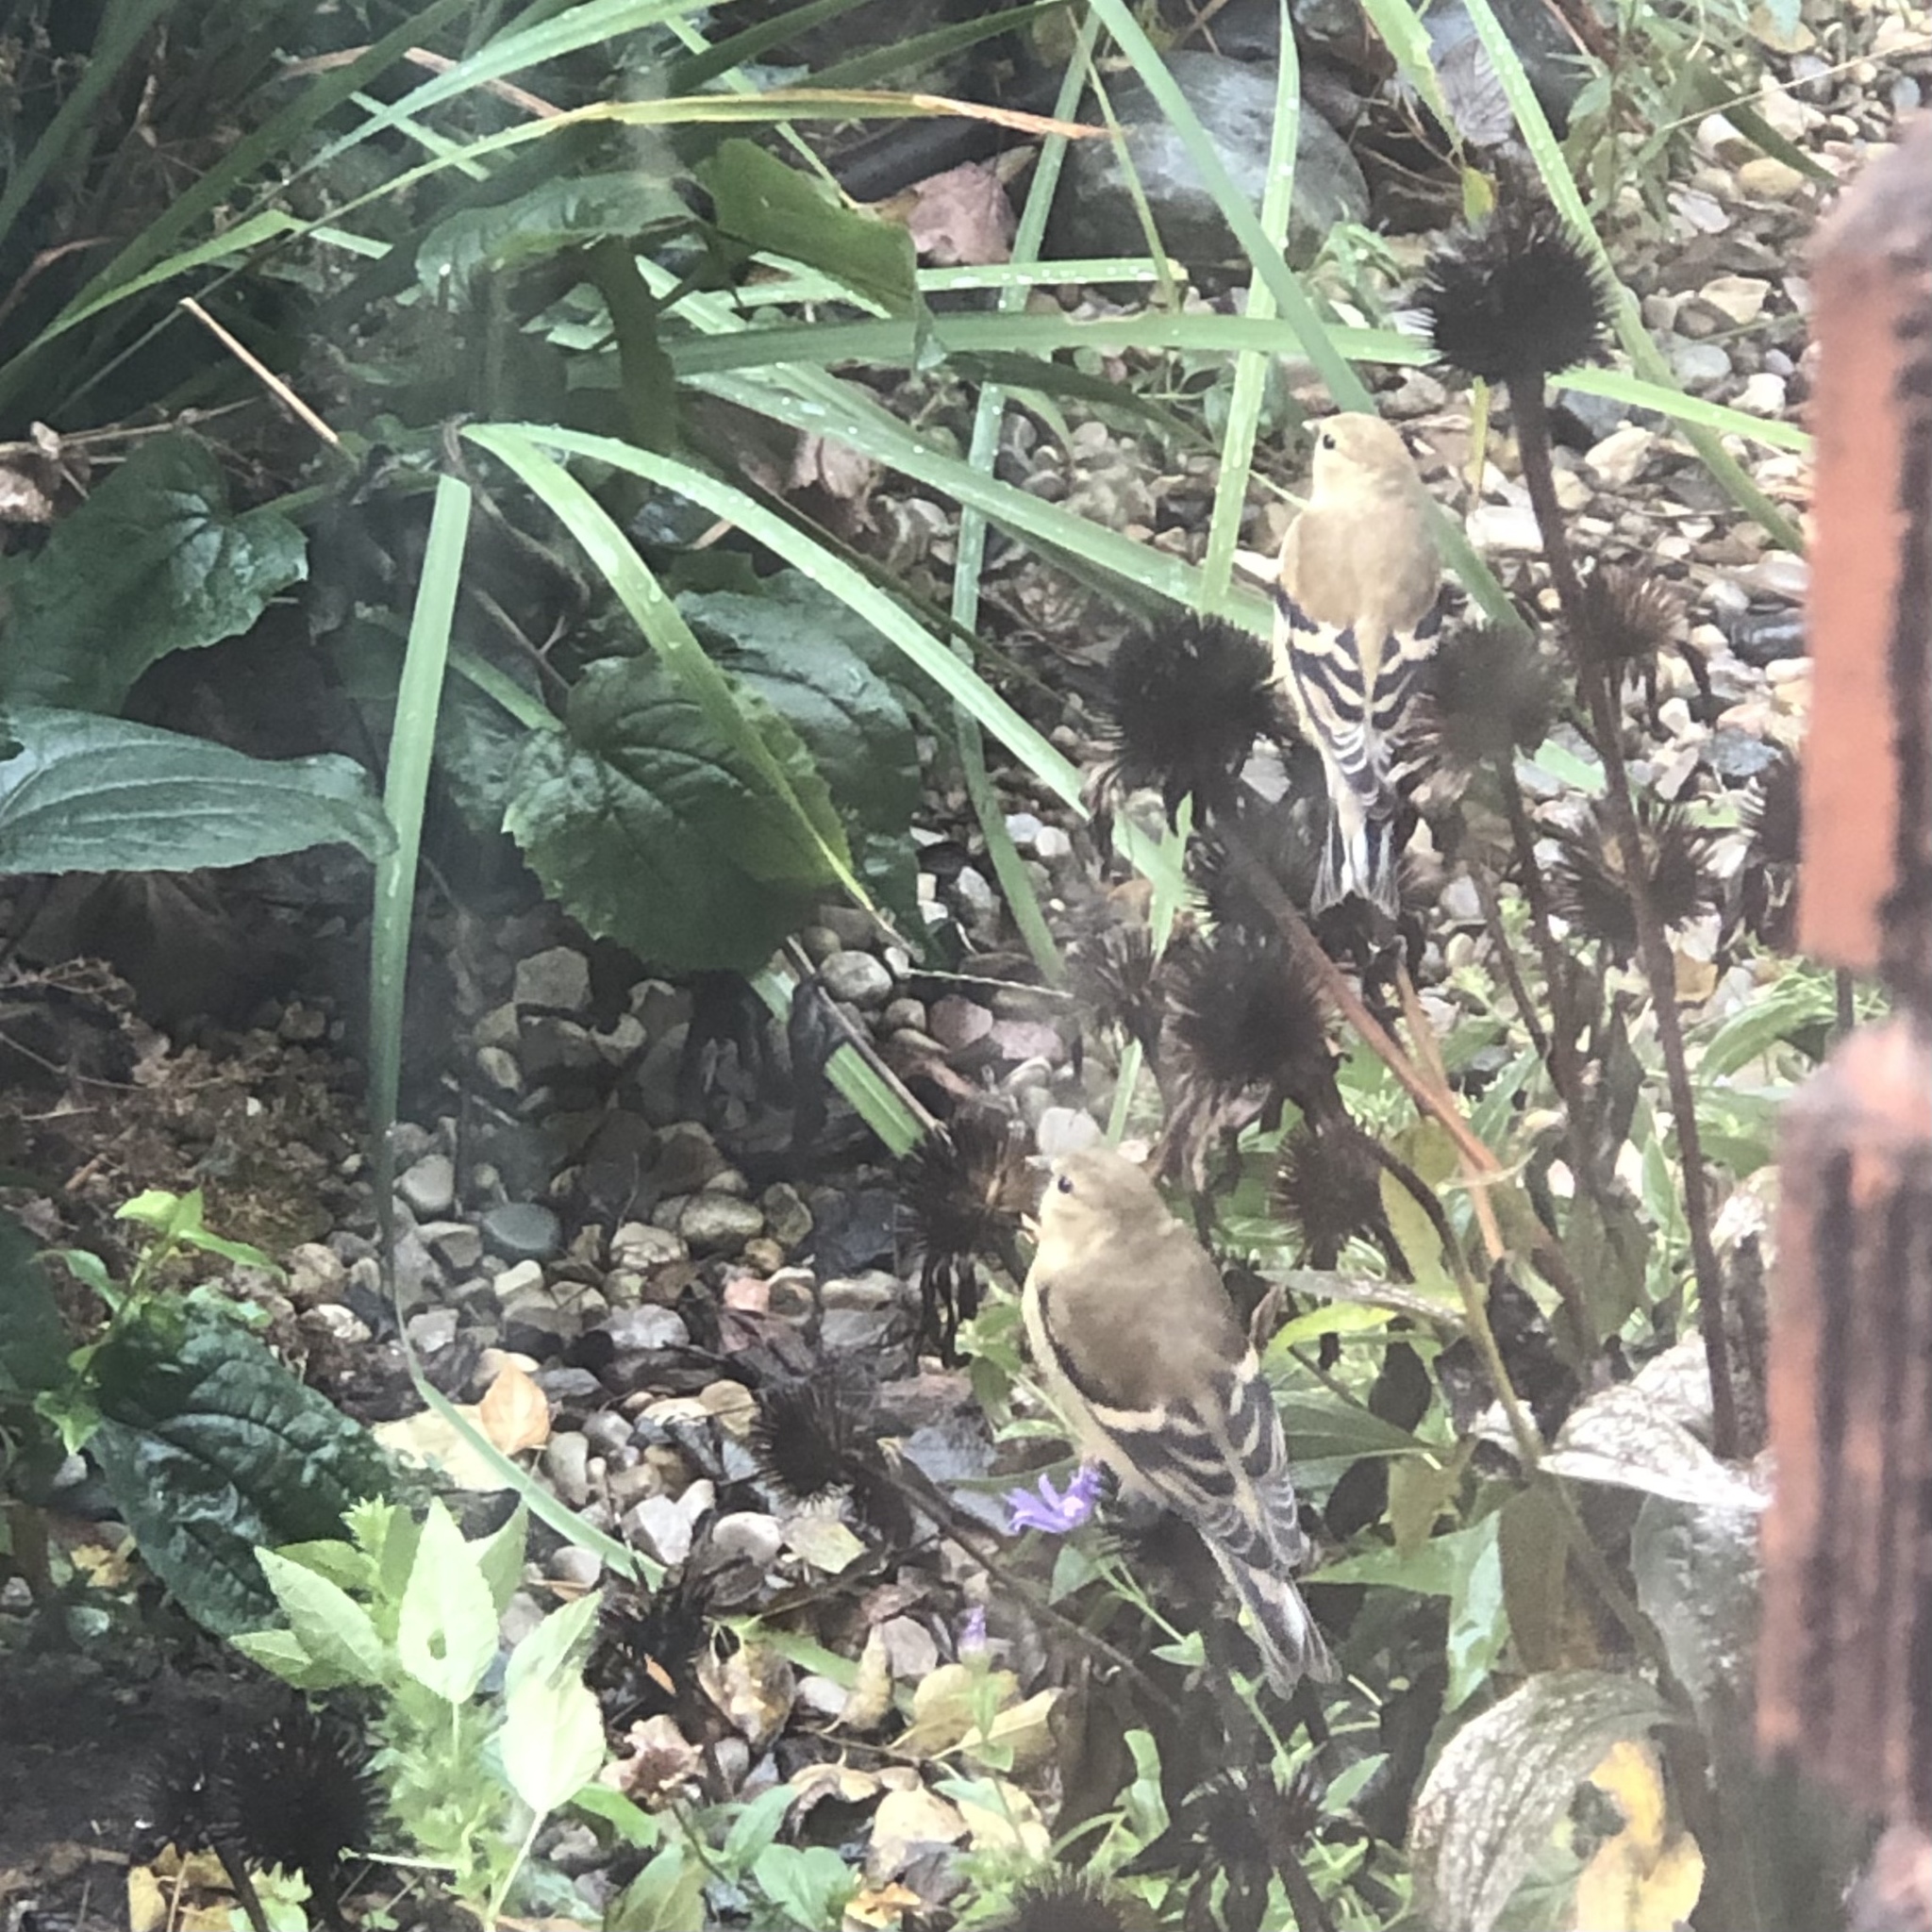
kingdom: Animalia
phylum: Chordata
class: Aves
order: Passeriformes
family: Fringillidae
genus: Spinus
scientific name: Spinus tristis
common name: American goldfinch
